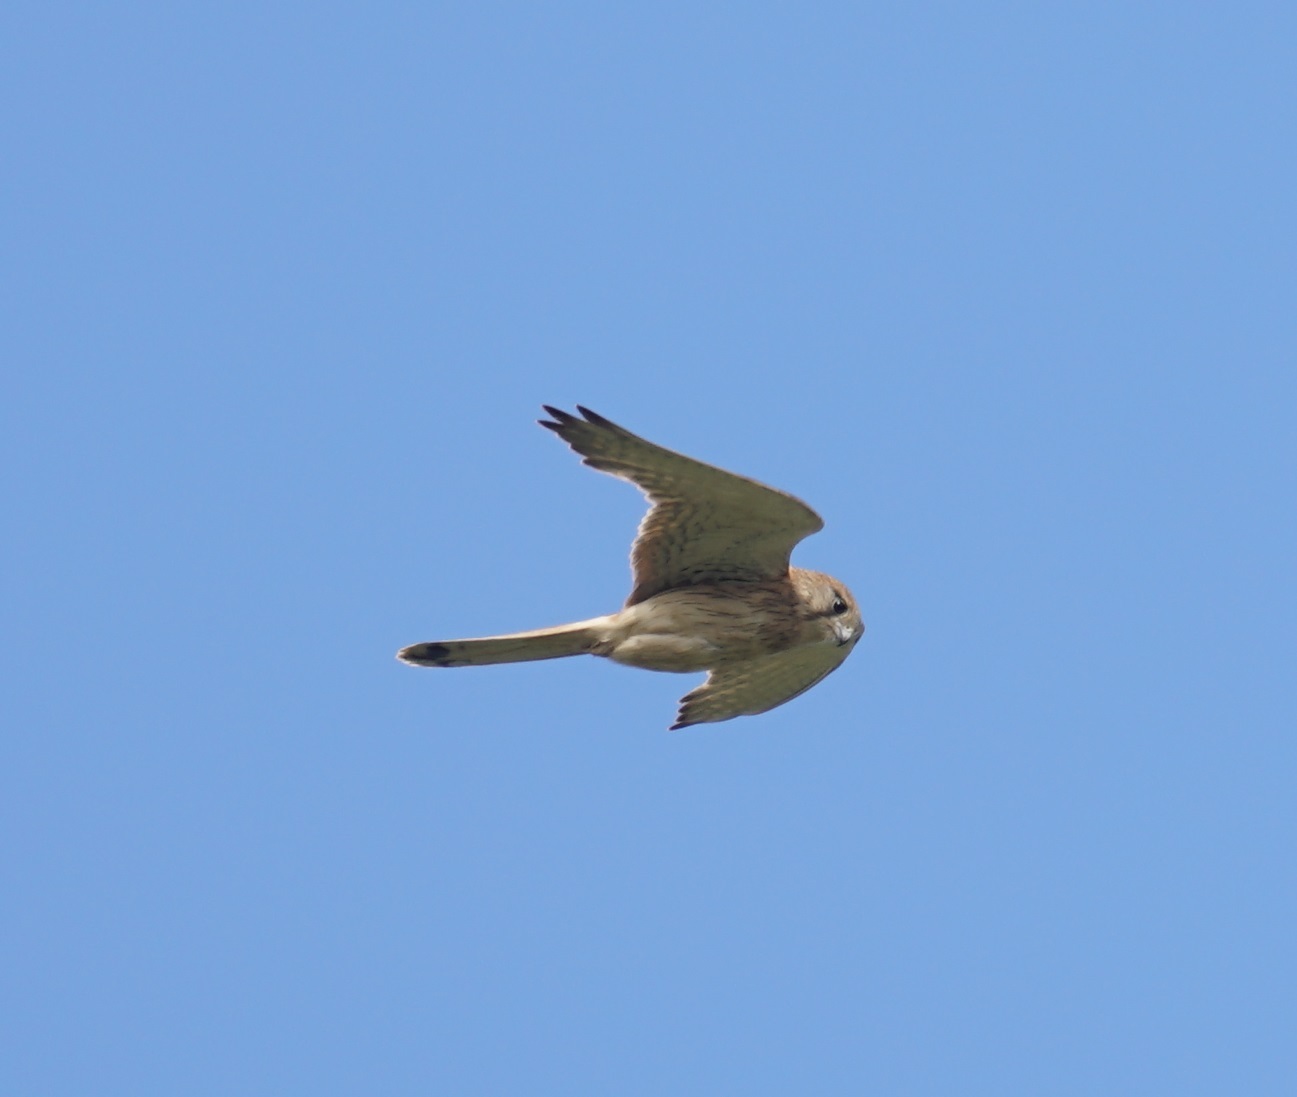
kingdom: Animalia
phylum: Chordata
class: Aves
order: Falconiformes
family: Falconidae
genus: Falco
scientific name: Falco cenchroides
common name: Nankeen kestrel
